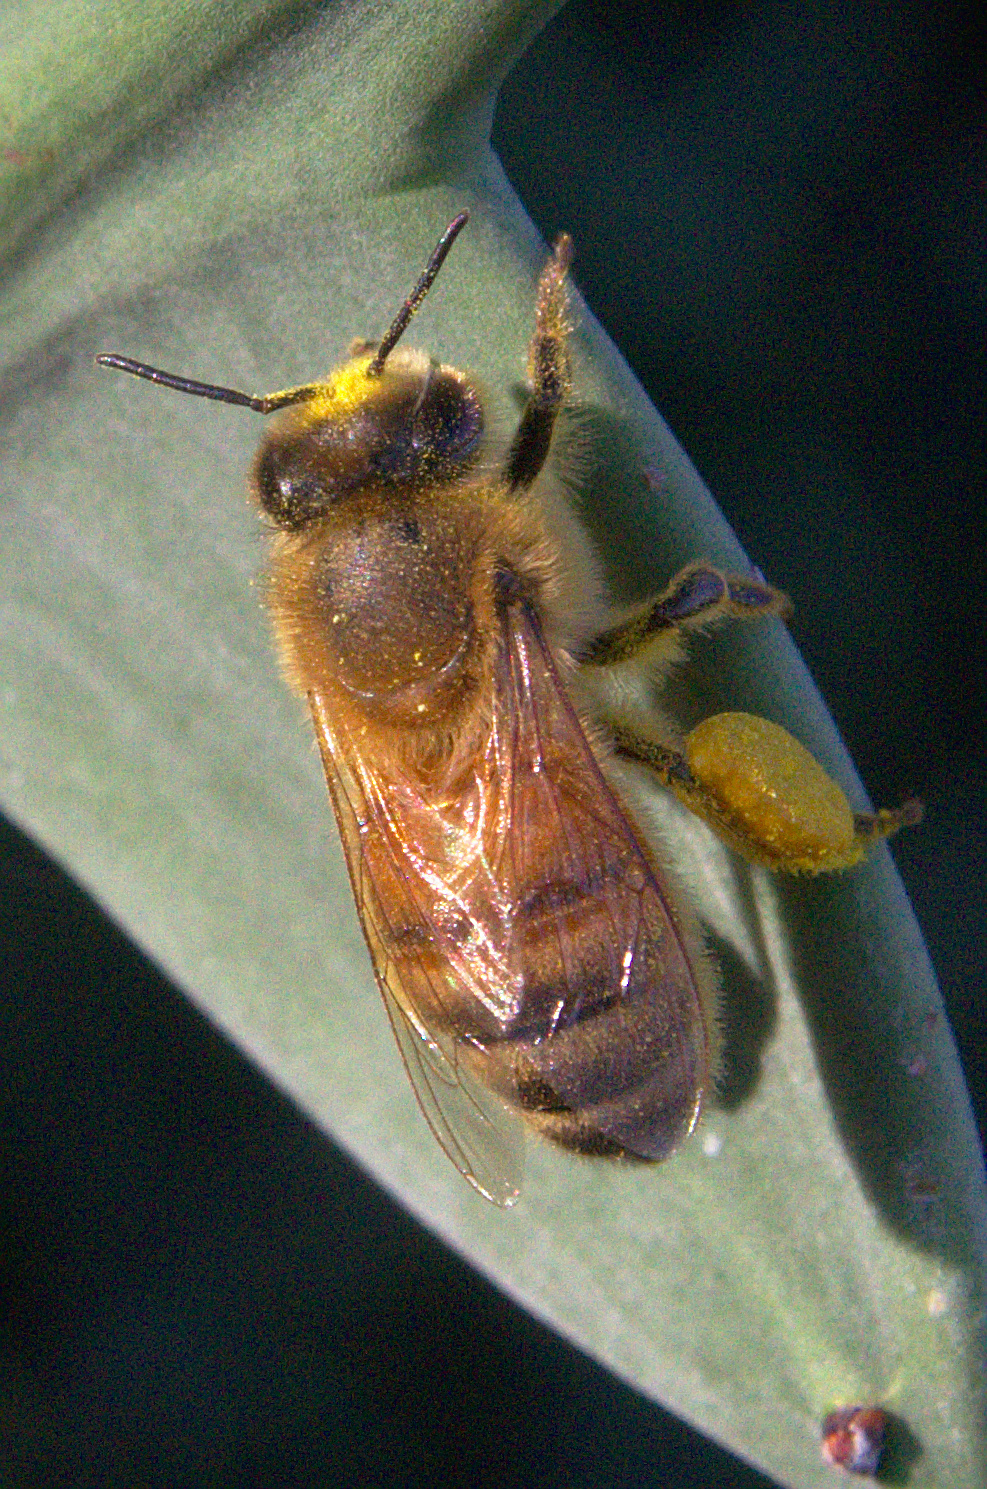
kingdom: Animalia
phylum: Arthropoda
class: Insecta
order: Hymenoptera
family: Apidae
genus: Apis
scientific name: Apis mellifera
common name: Honey bee
